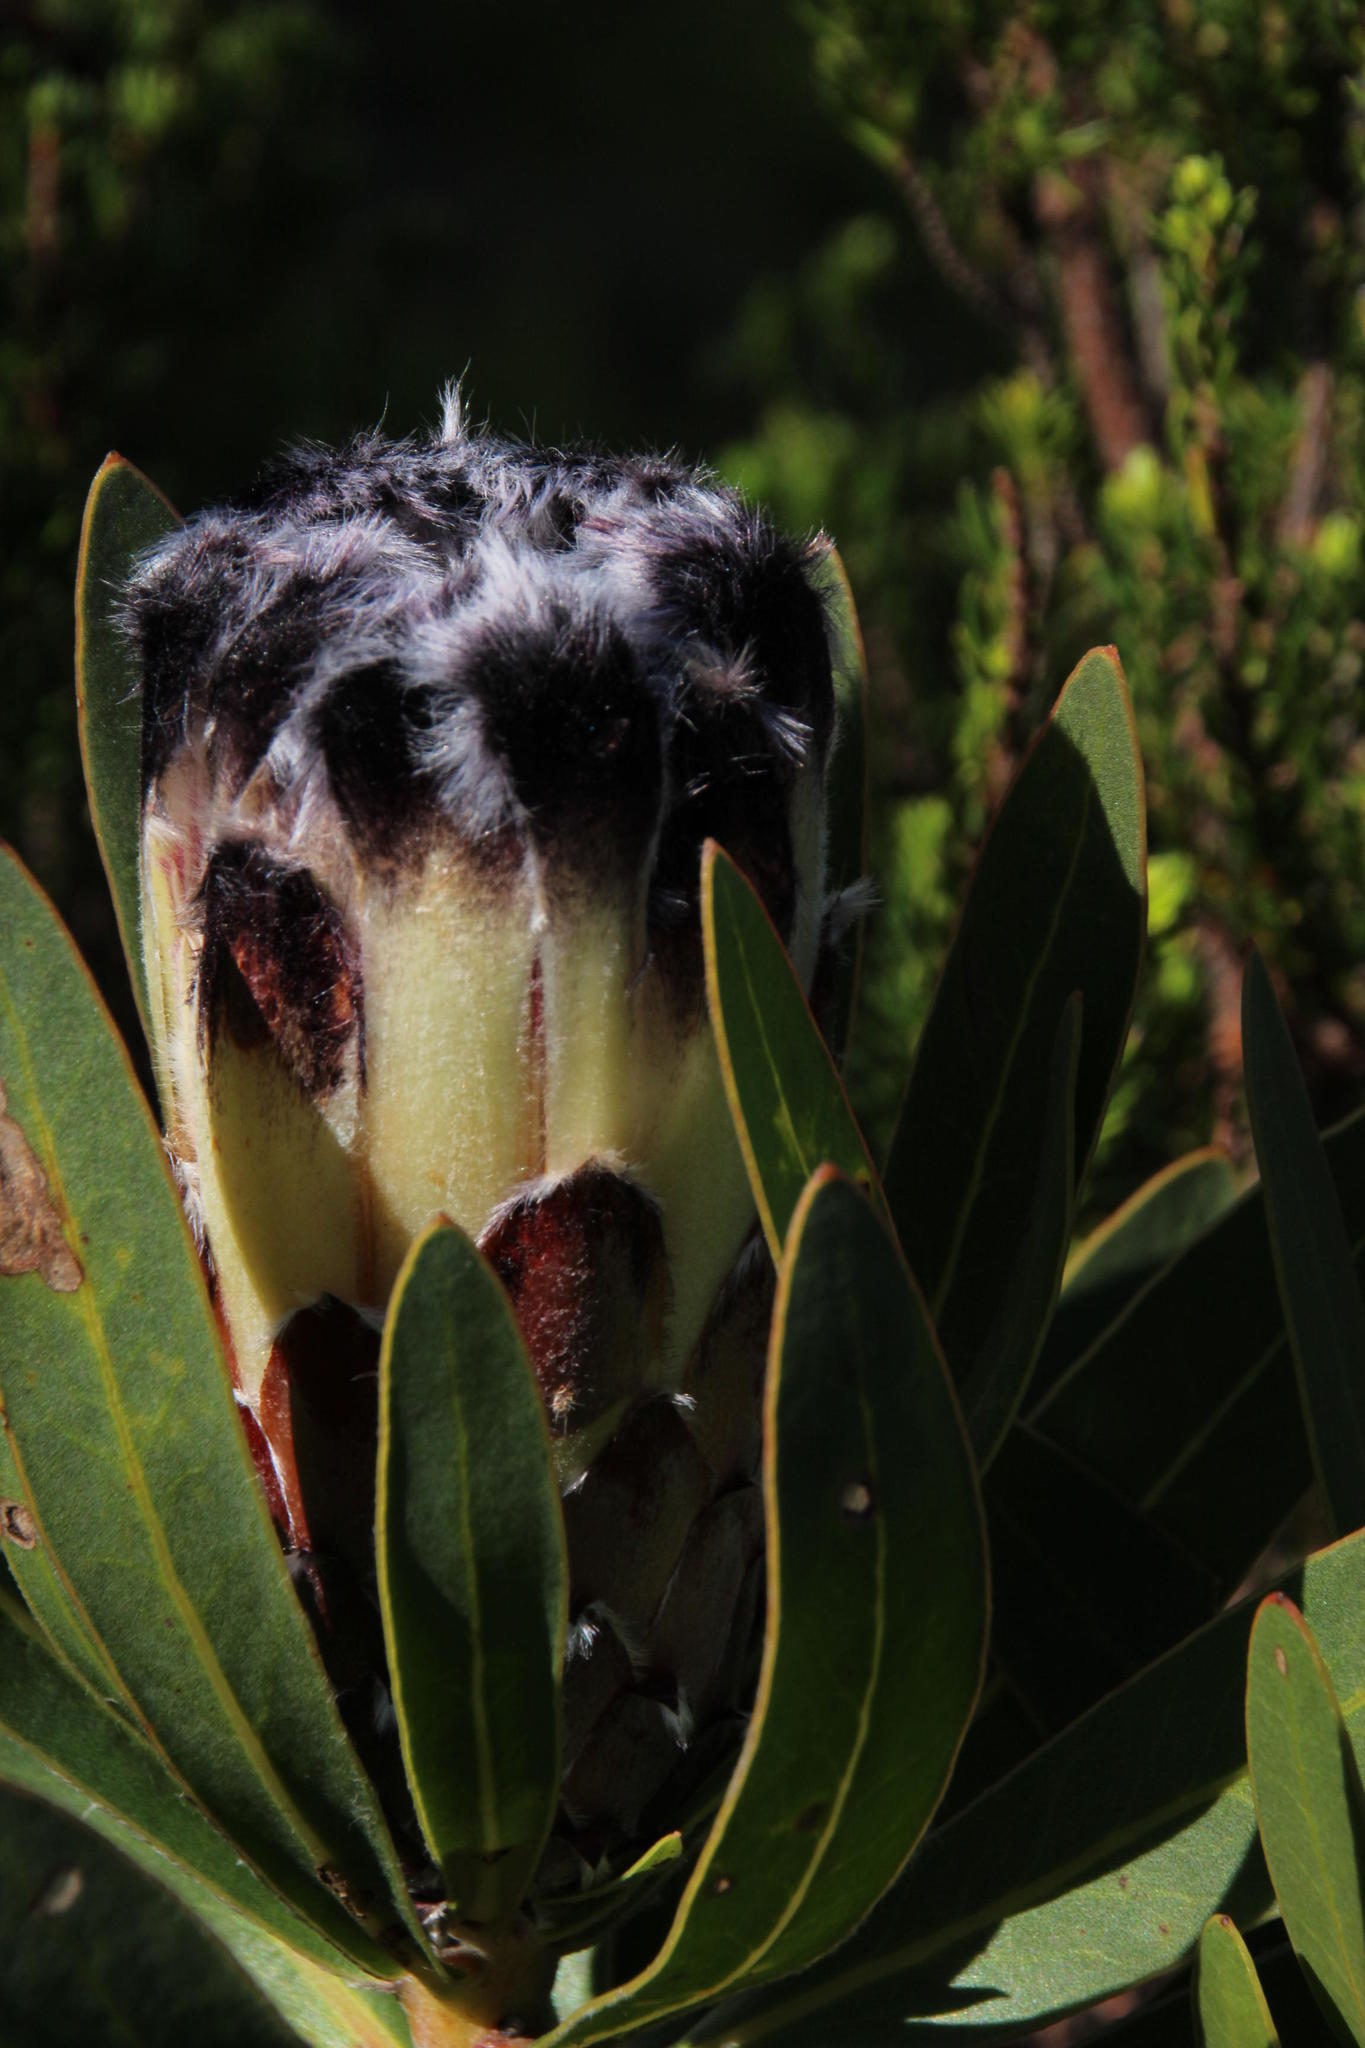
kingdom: Plantae
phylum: Tracheophyta
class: Magnoliopsida
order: Proteales
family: Proteaceae
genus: Protea
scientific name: Protea lepidocarpodendron
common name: Black-bearded protea
